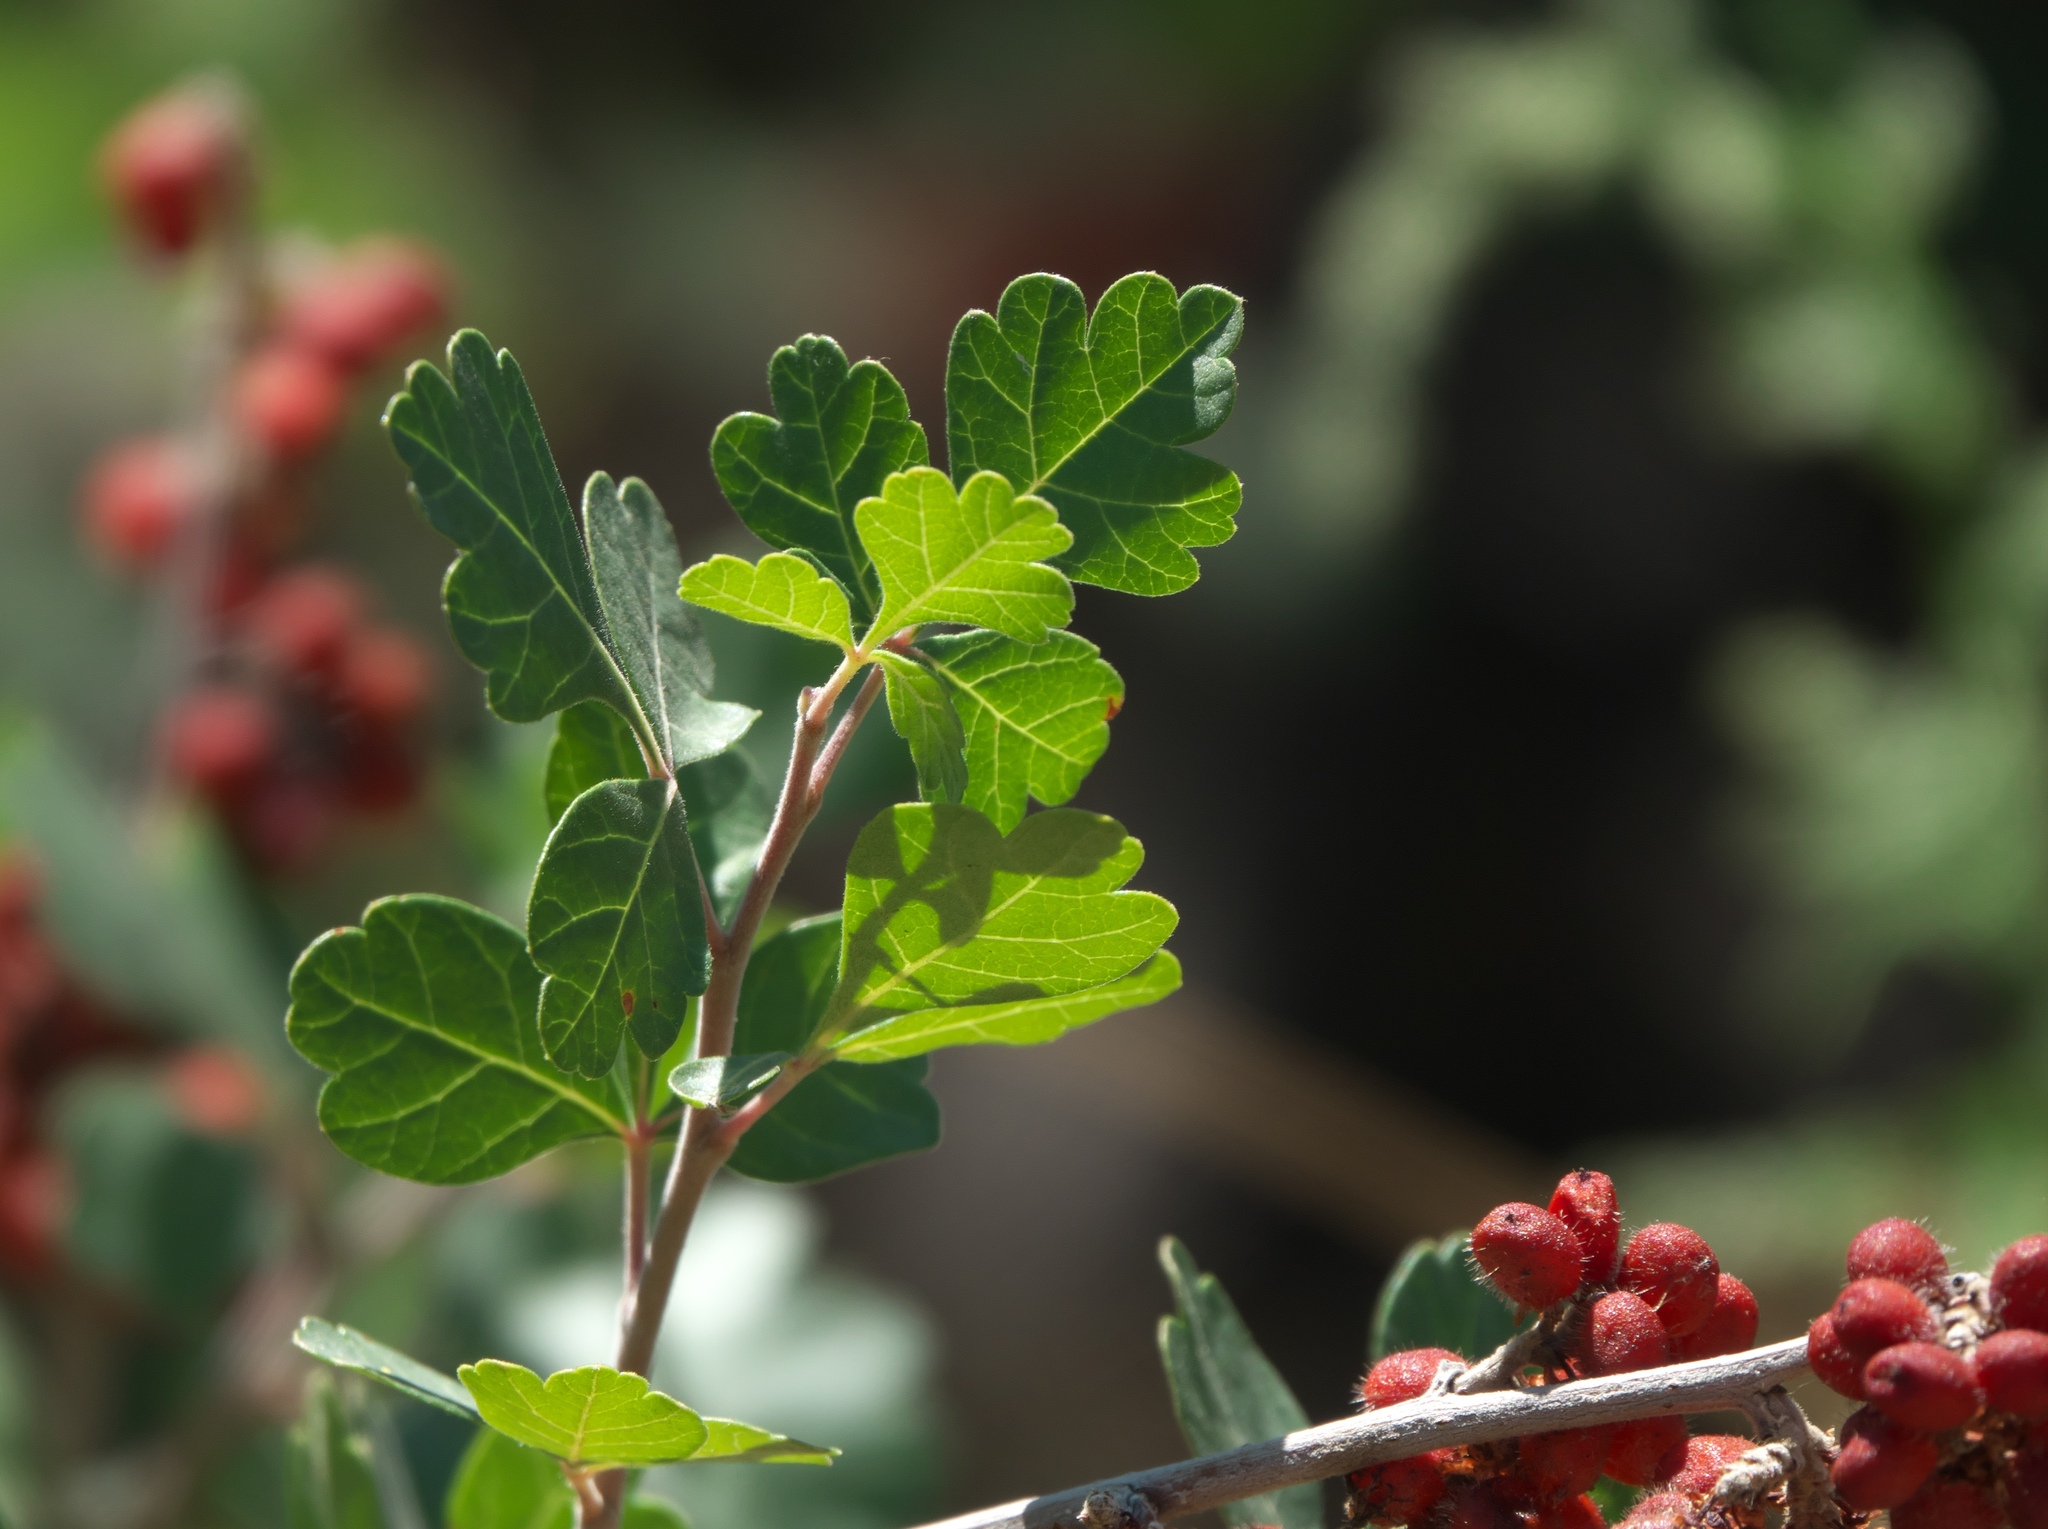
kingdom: Plantae
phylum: Tracheophyta
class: Magnoliopsida
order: Sapindales
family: Anacardiaceae
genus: Rhus
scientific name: Rhus trilobata
